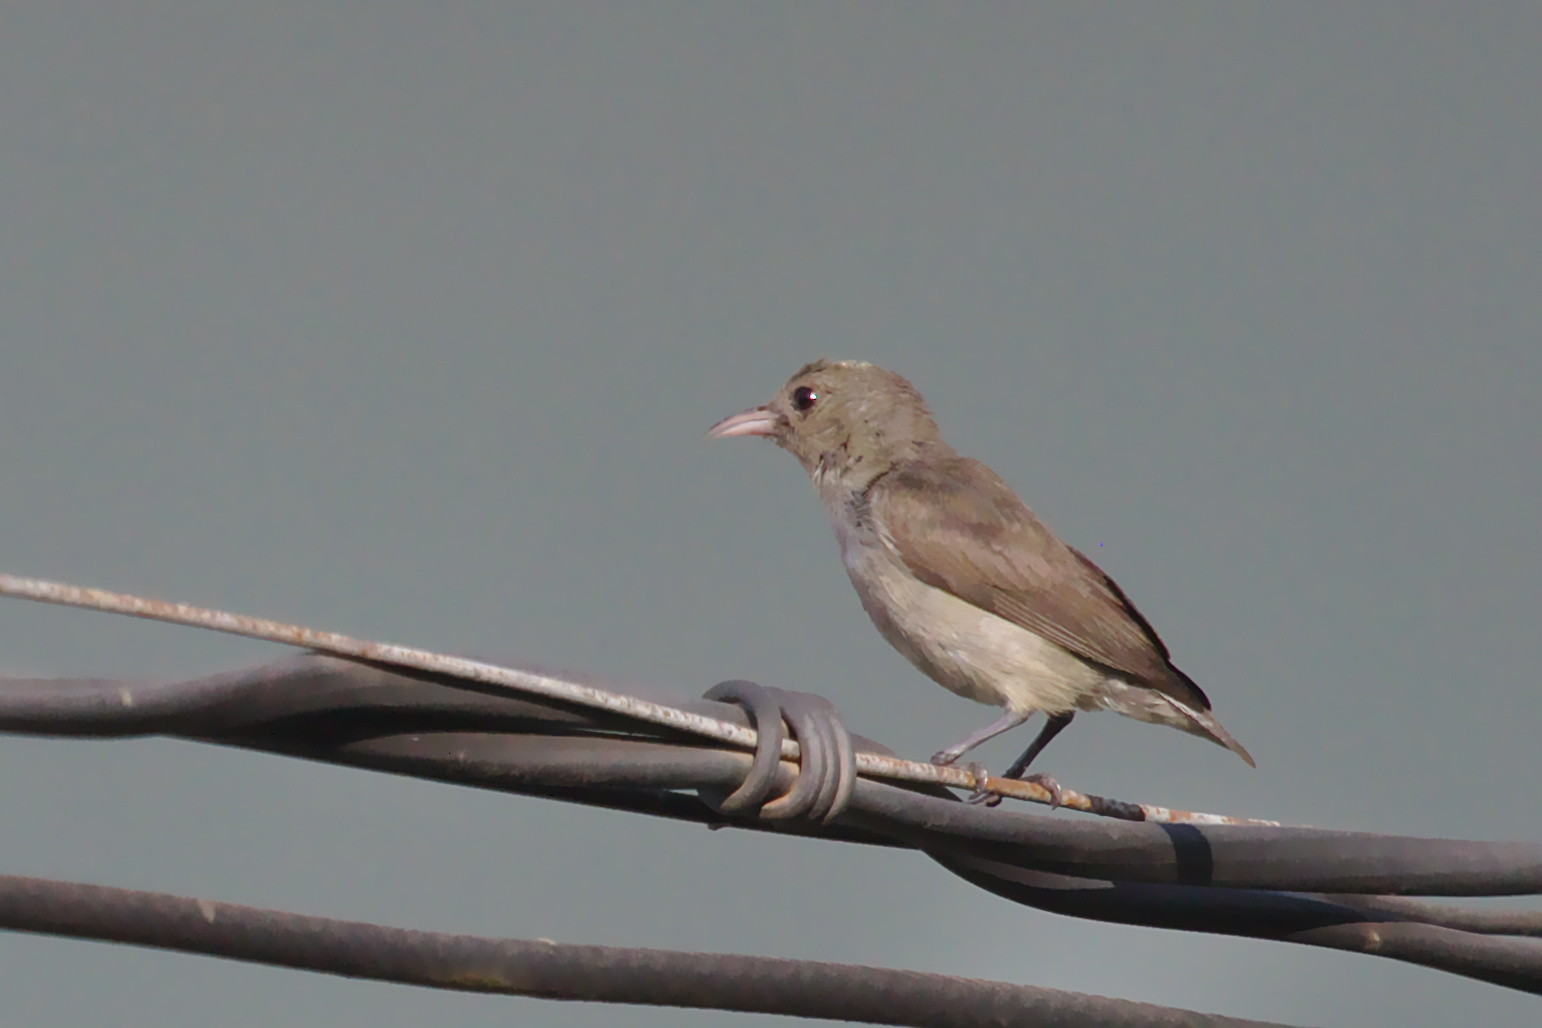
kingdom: Animalia
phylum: Chordata
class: Aves
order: Passeriformes
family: Dicaeidae
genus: Dicaeum
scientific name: Dicaeum erythrorhynchos
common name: Pale-billed flowerpecker
